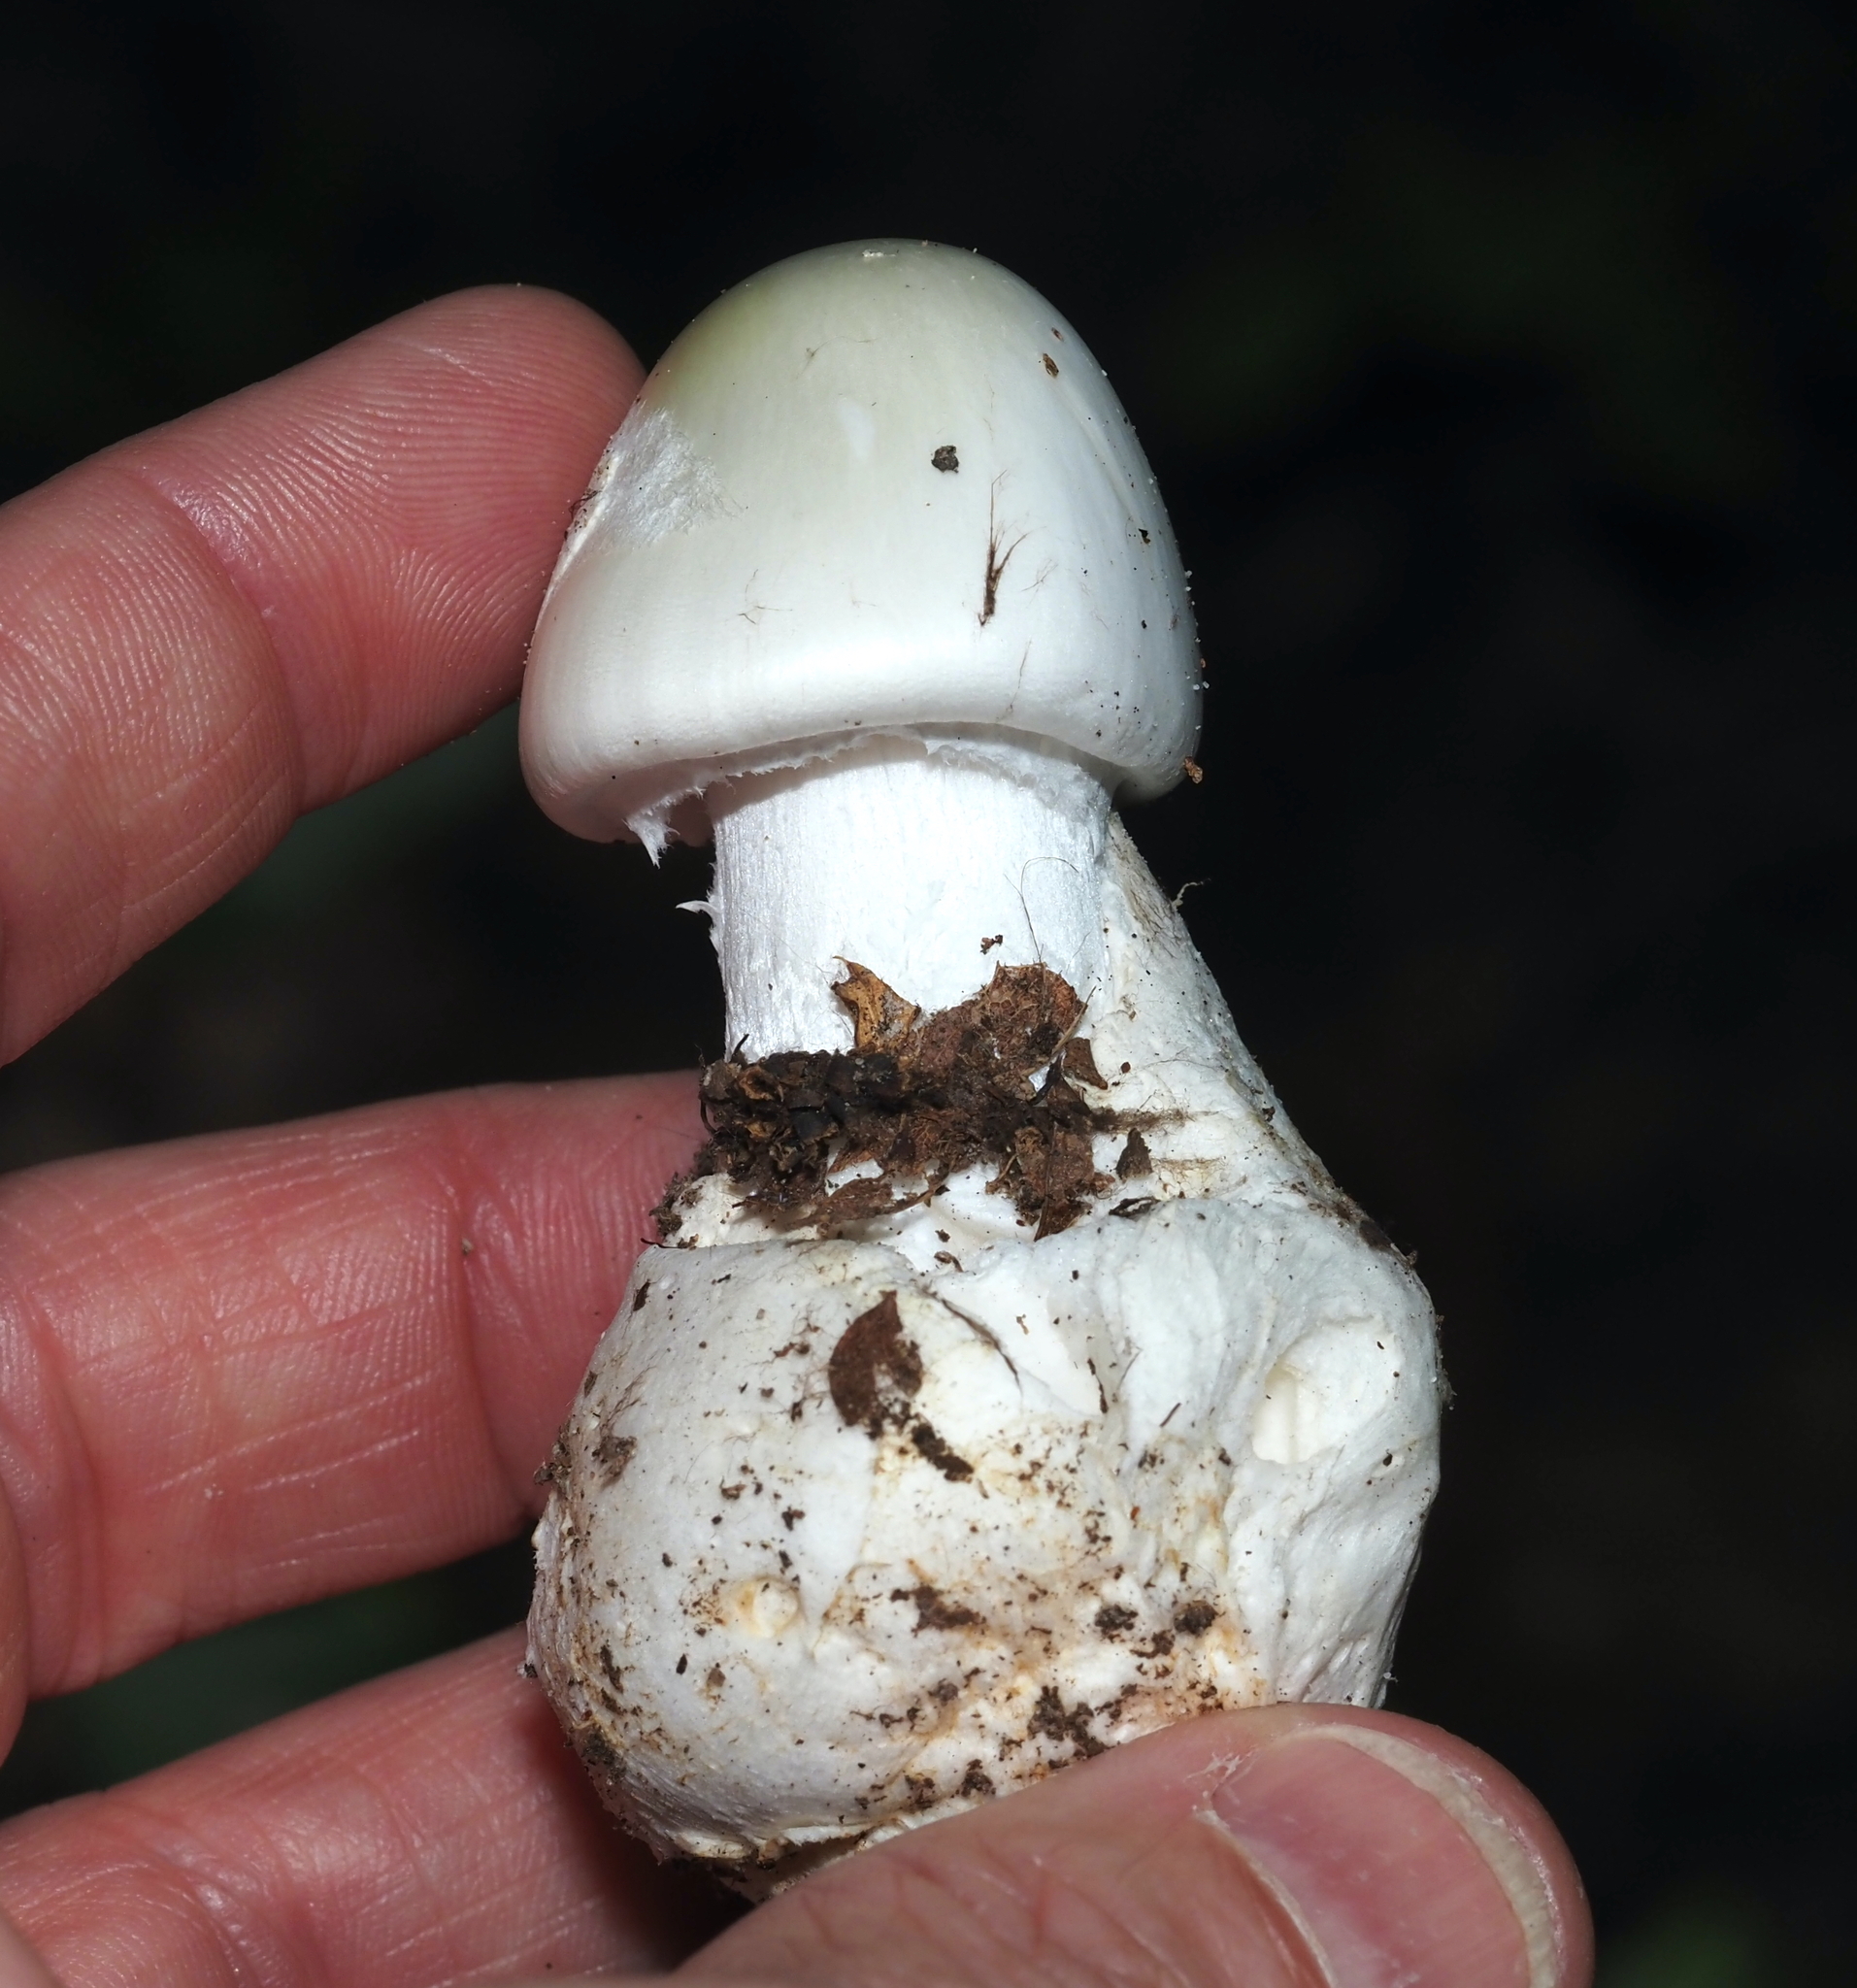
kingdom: Fungi
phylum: Basidiomycota
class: Agaricomycetes
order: Agaricales
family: Amanitaceae
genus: Amanita
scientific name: Amanita bisporigera
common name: Eastern north american destroying angel
